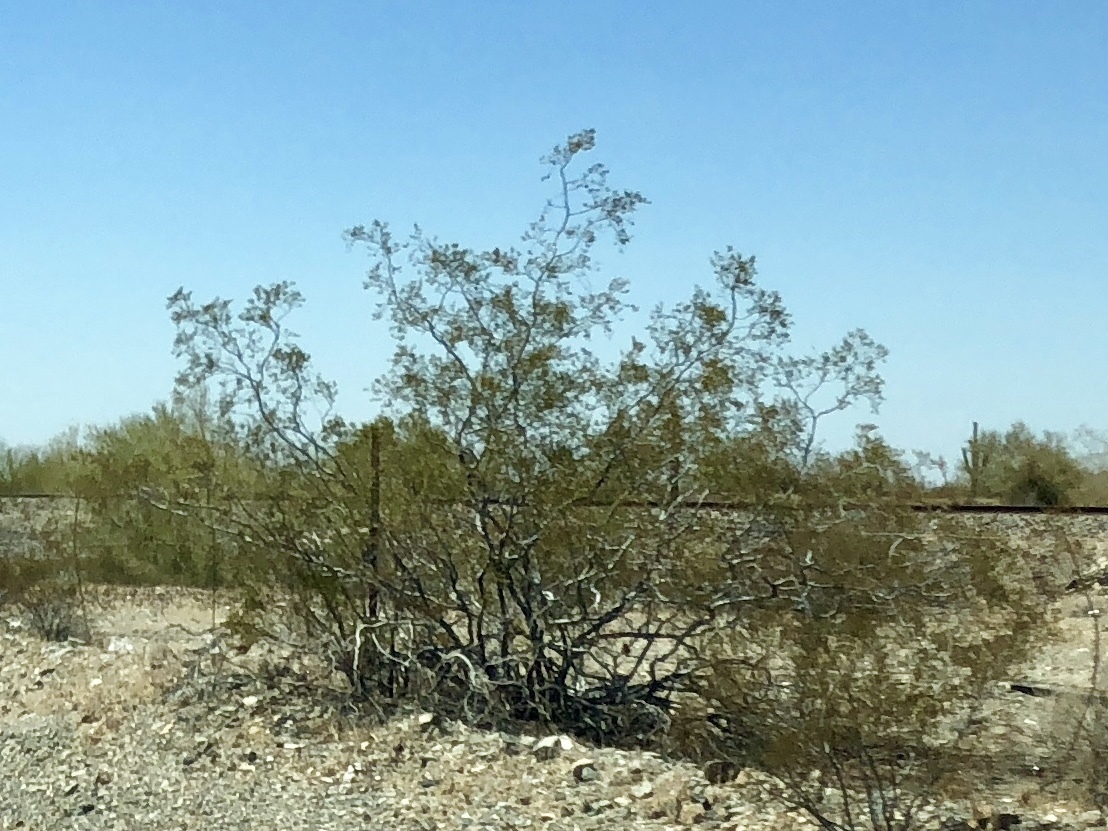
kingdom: Plantae
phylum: Tracheophyta
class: Magnoliopsida
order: Zygophyllales
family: Zygophyllaceae
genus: Larrea
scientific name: Larrea tridentata
